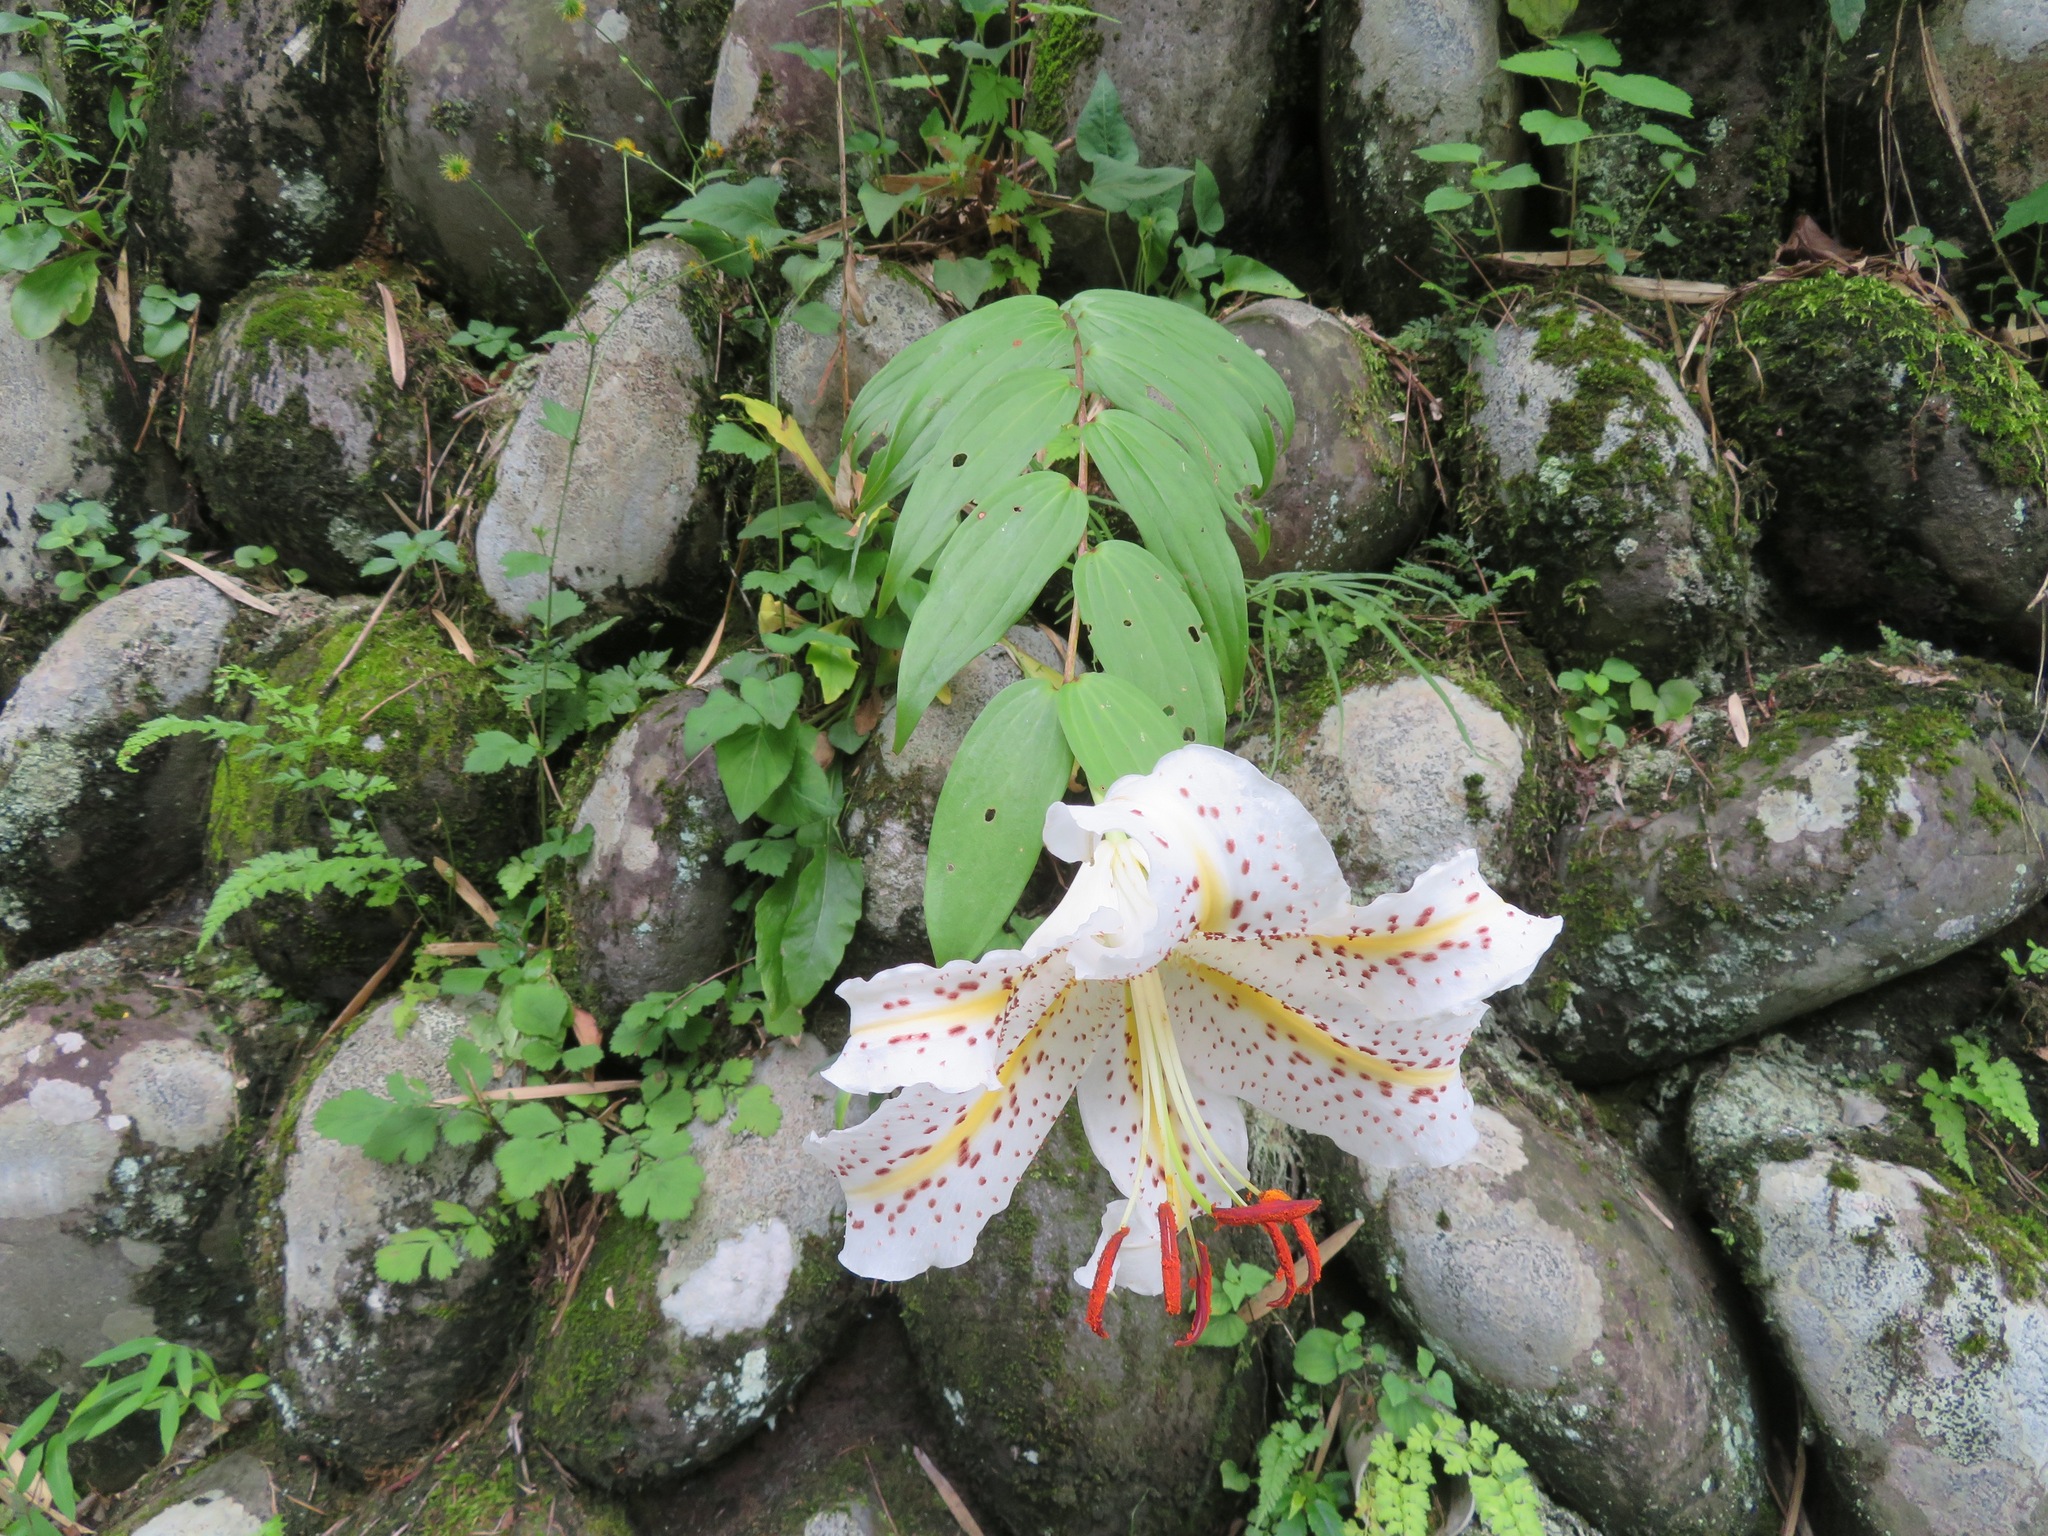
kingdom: Plantae
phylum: Tracheophyta
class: Liliopsida
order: Liliales
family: Liliaceae
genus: Lilium
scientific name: Lilium auratum
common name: Golden-ray lily
